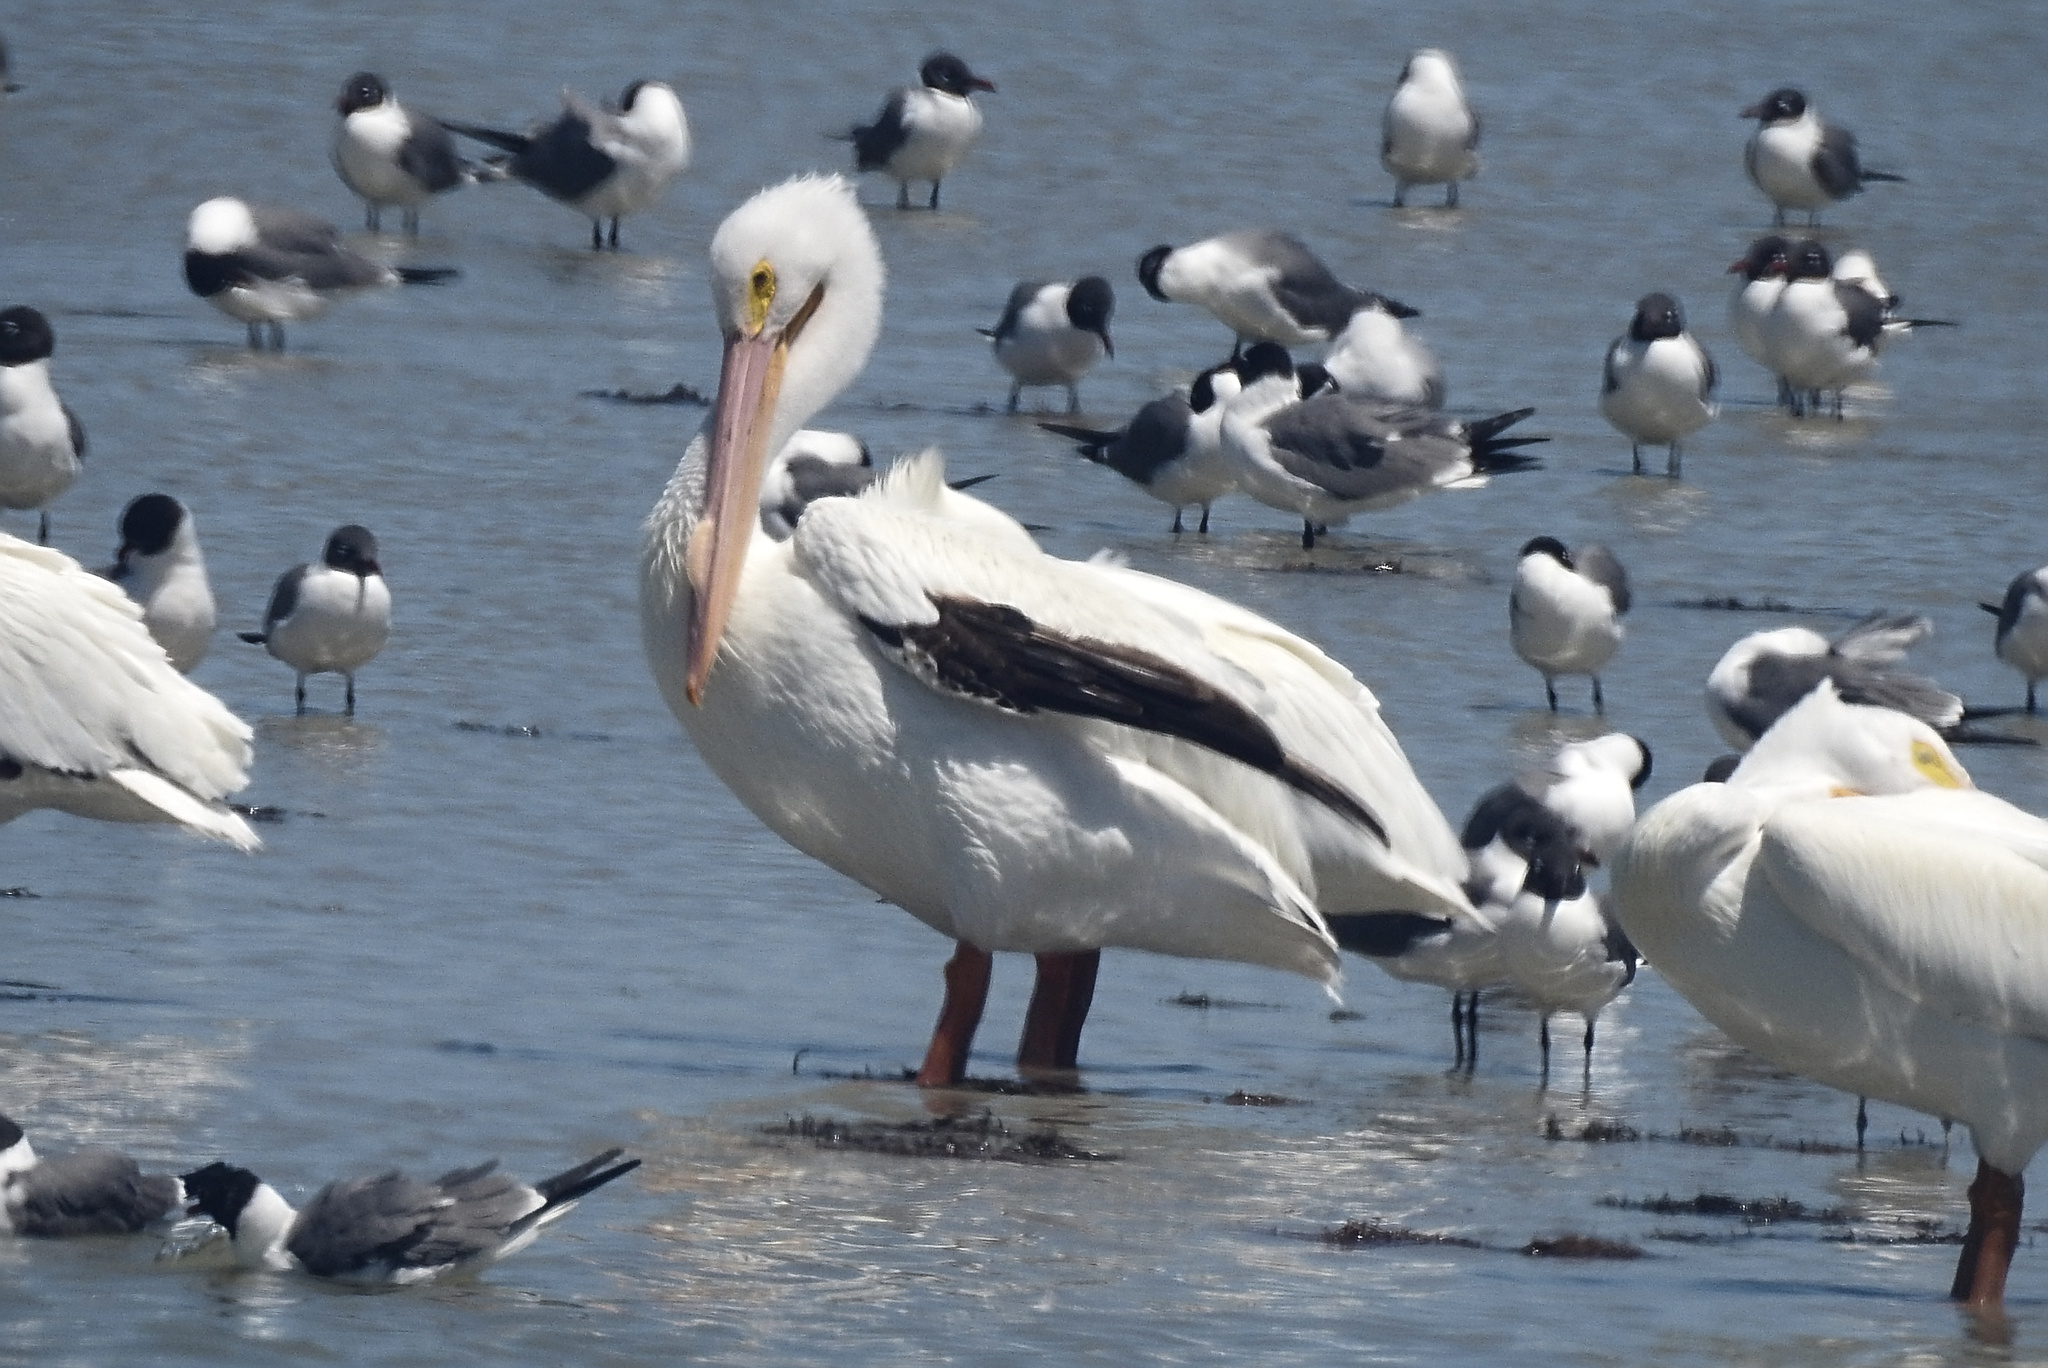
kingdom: Animalia
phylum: Chordata
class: Aves
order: Pelecaniformes
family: Pelecanidae
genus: Pelecanus
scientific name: Pelecanus erythrorhynchos
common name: American white pelican
